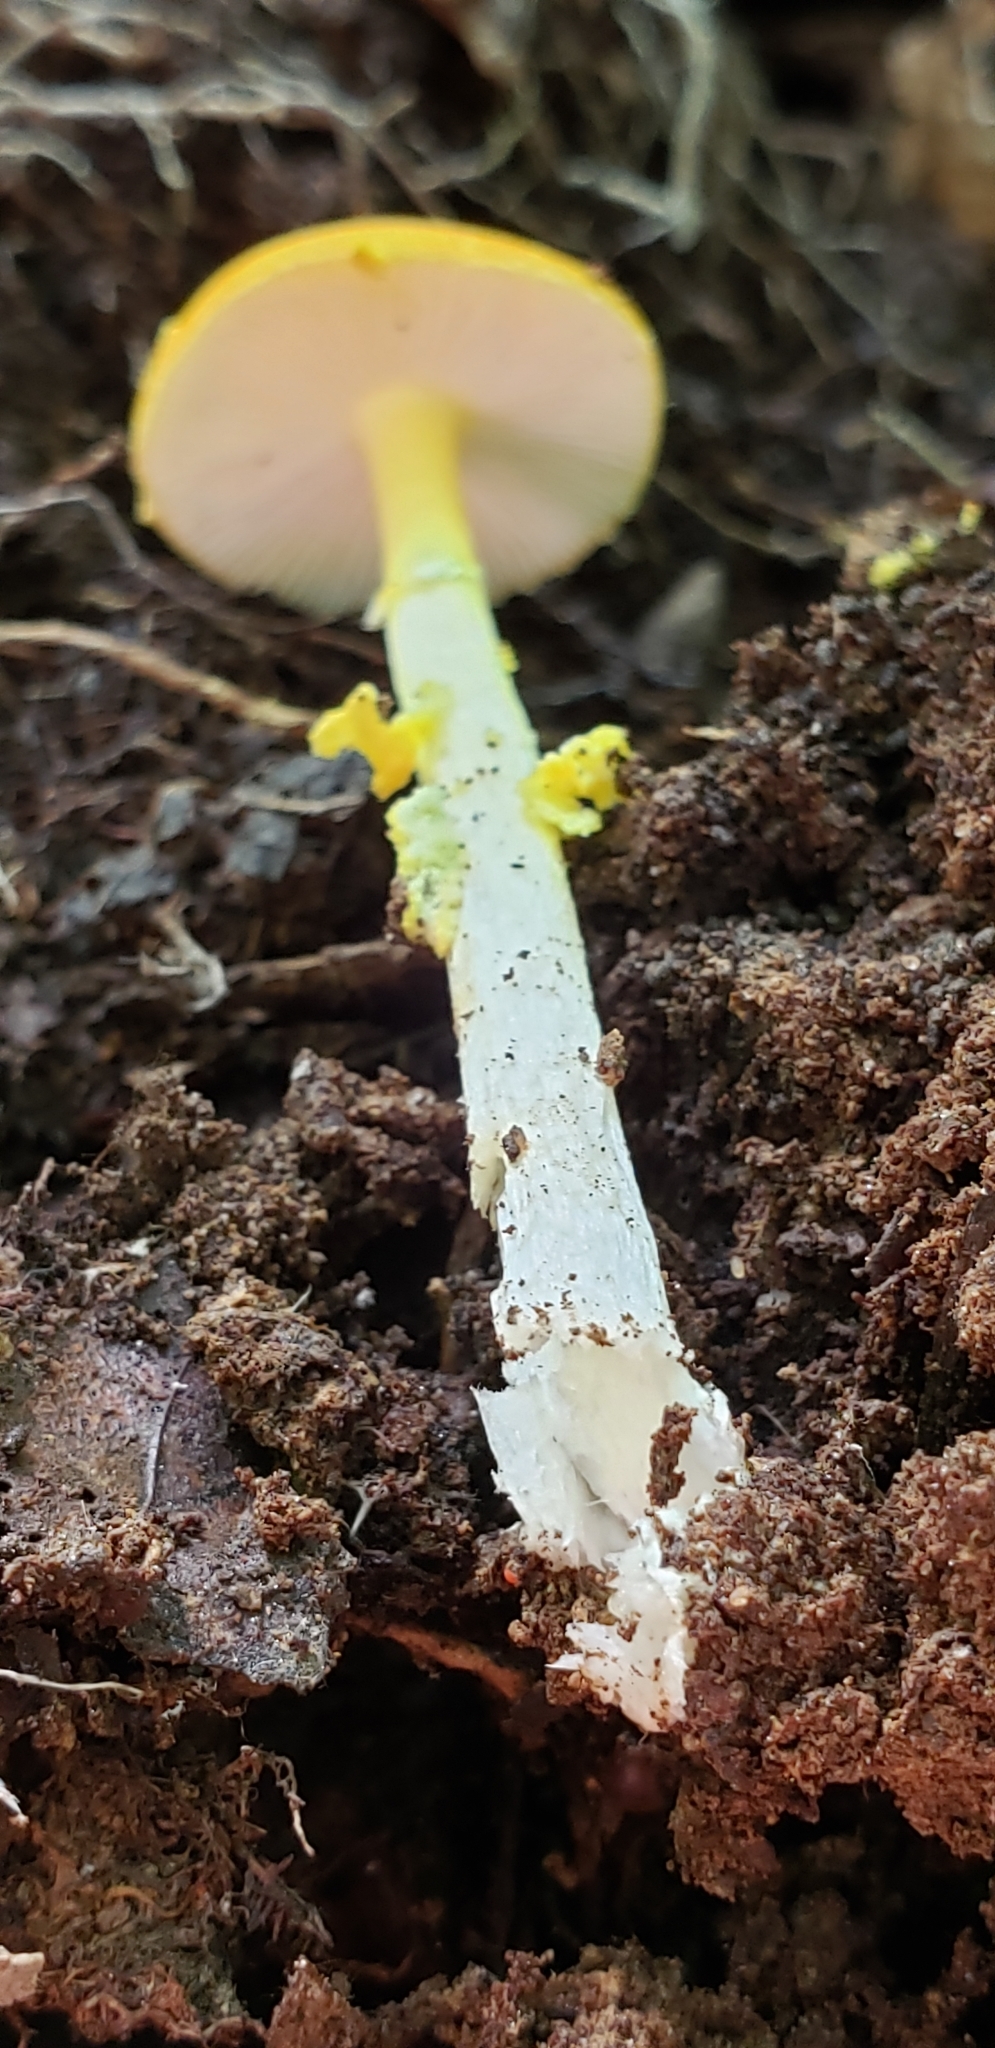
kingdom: Fungi
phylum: Basidiomycota
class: Agaricomycetes
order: Agaricales
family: Amanitaceae
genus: Amanita
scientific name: Amanita flavoconia
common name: Yellow patches
